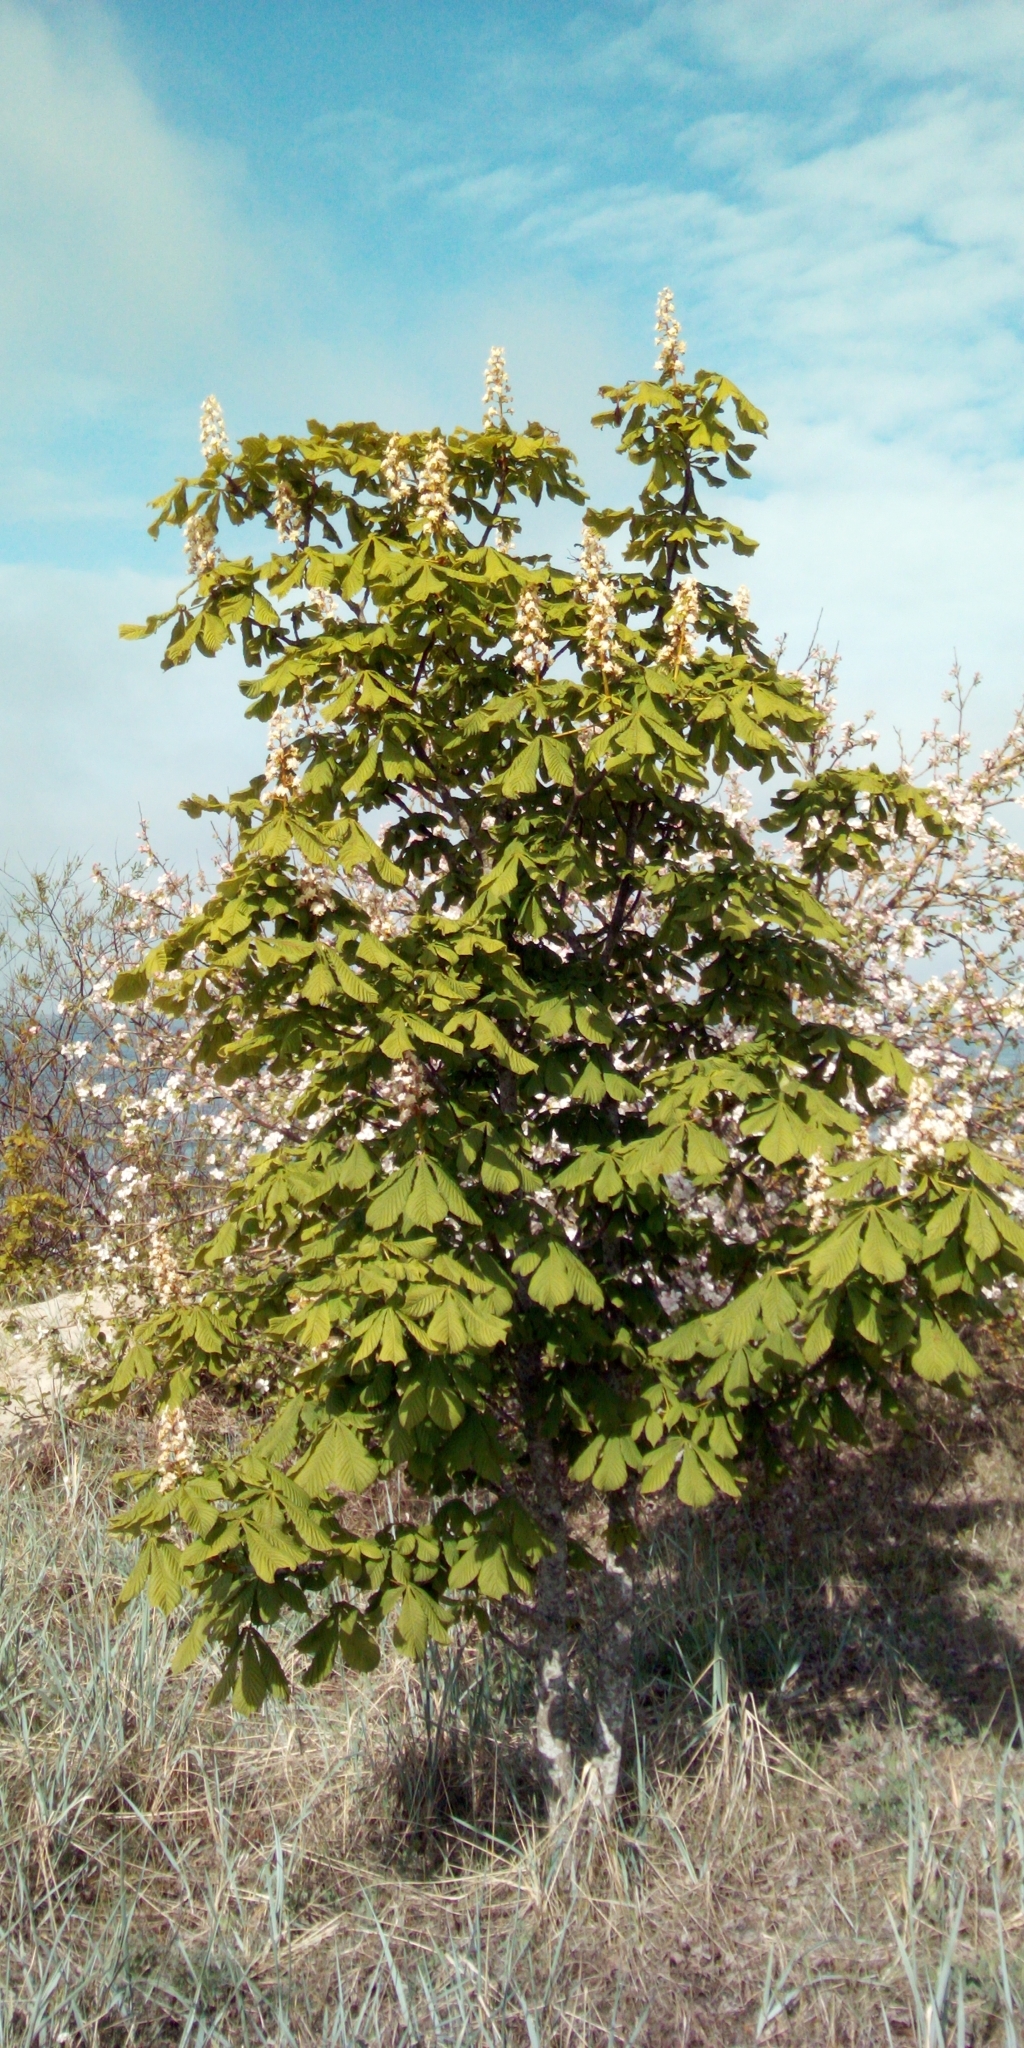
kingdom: Plantae
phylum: Tracheophyta
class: Magnoliopsida
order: Sapindales
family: Sapindaceae
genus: Aesculus
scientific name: Aesculus hippocastanum
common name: Horse-chestnut
